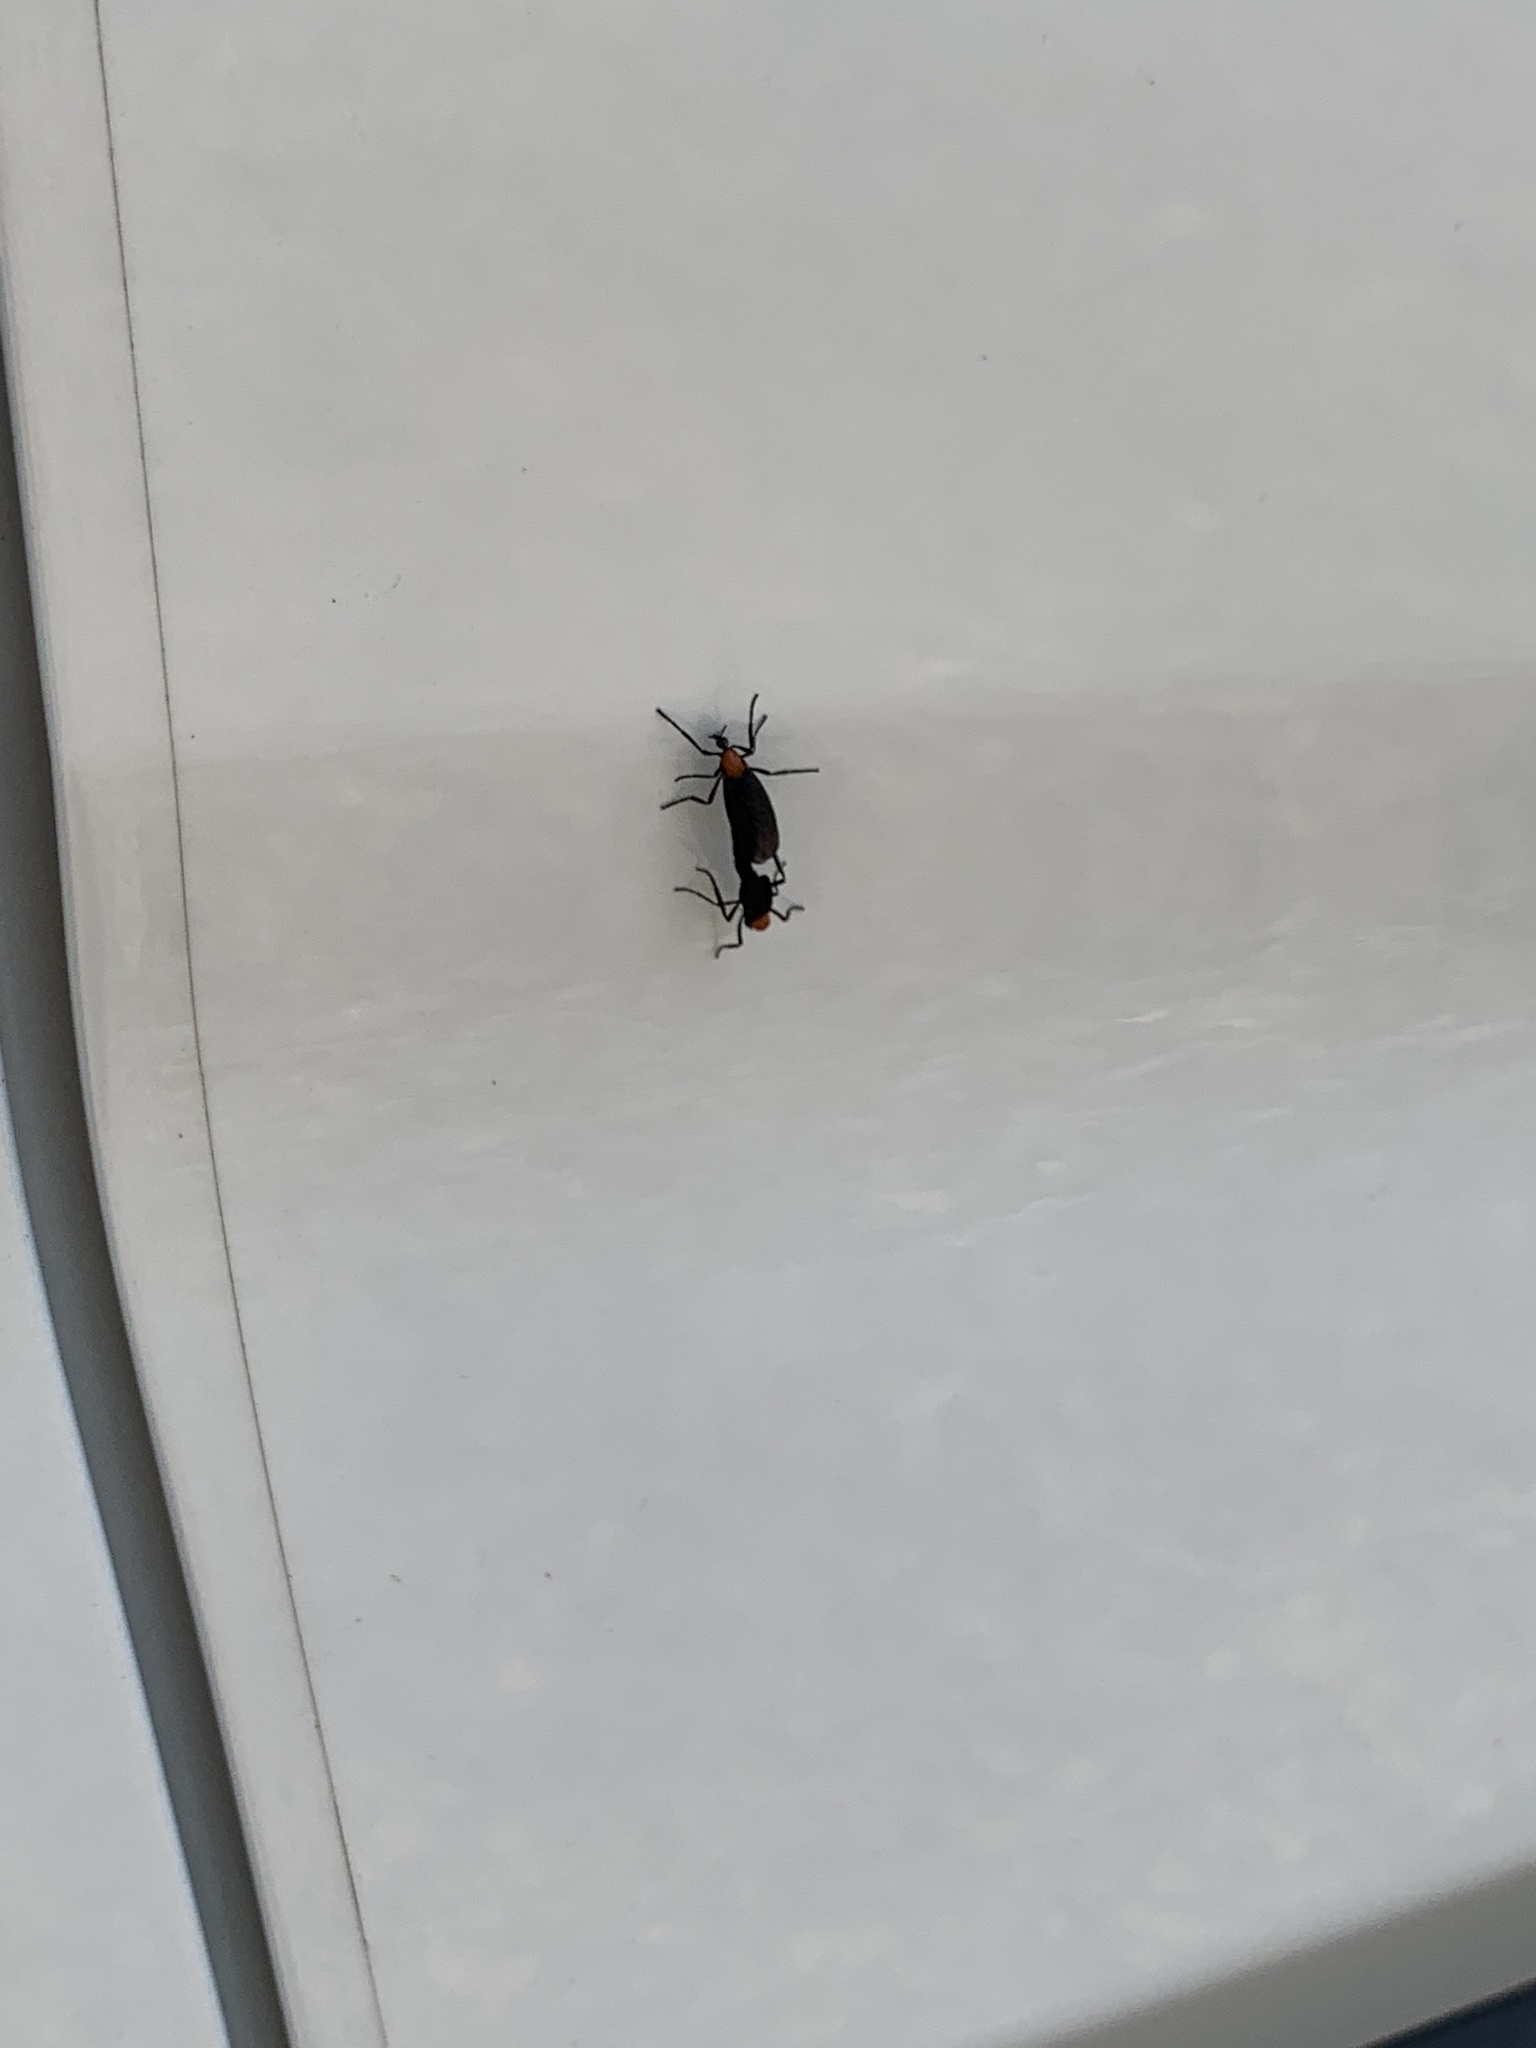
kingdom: Animalia
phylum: Arthropoda
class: Insecta
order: Diptera
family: Bibionidae
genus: Plecia
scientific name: Plecia nearctica
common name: March fly
